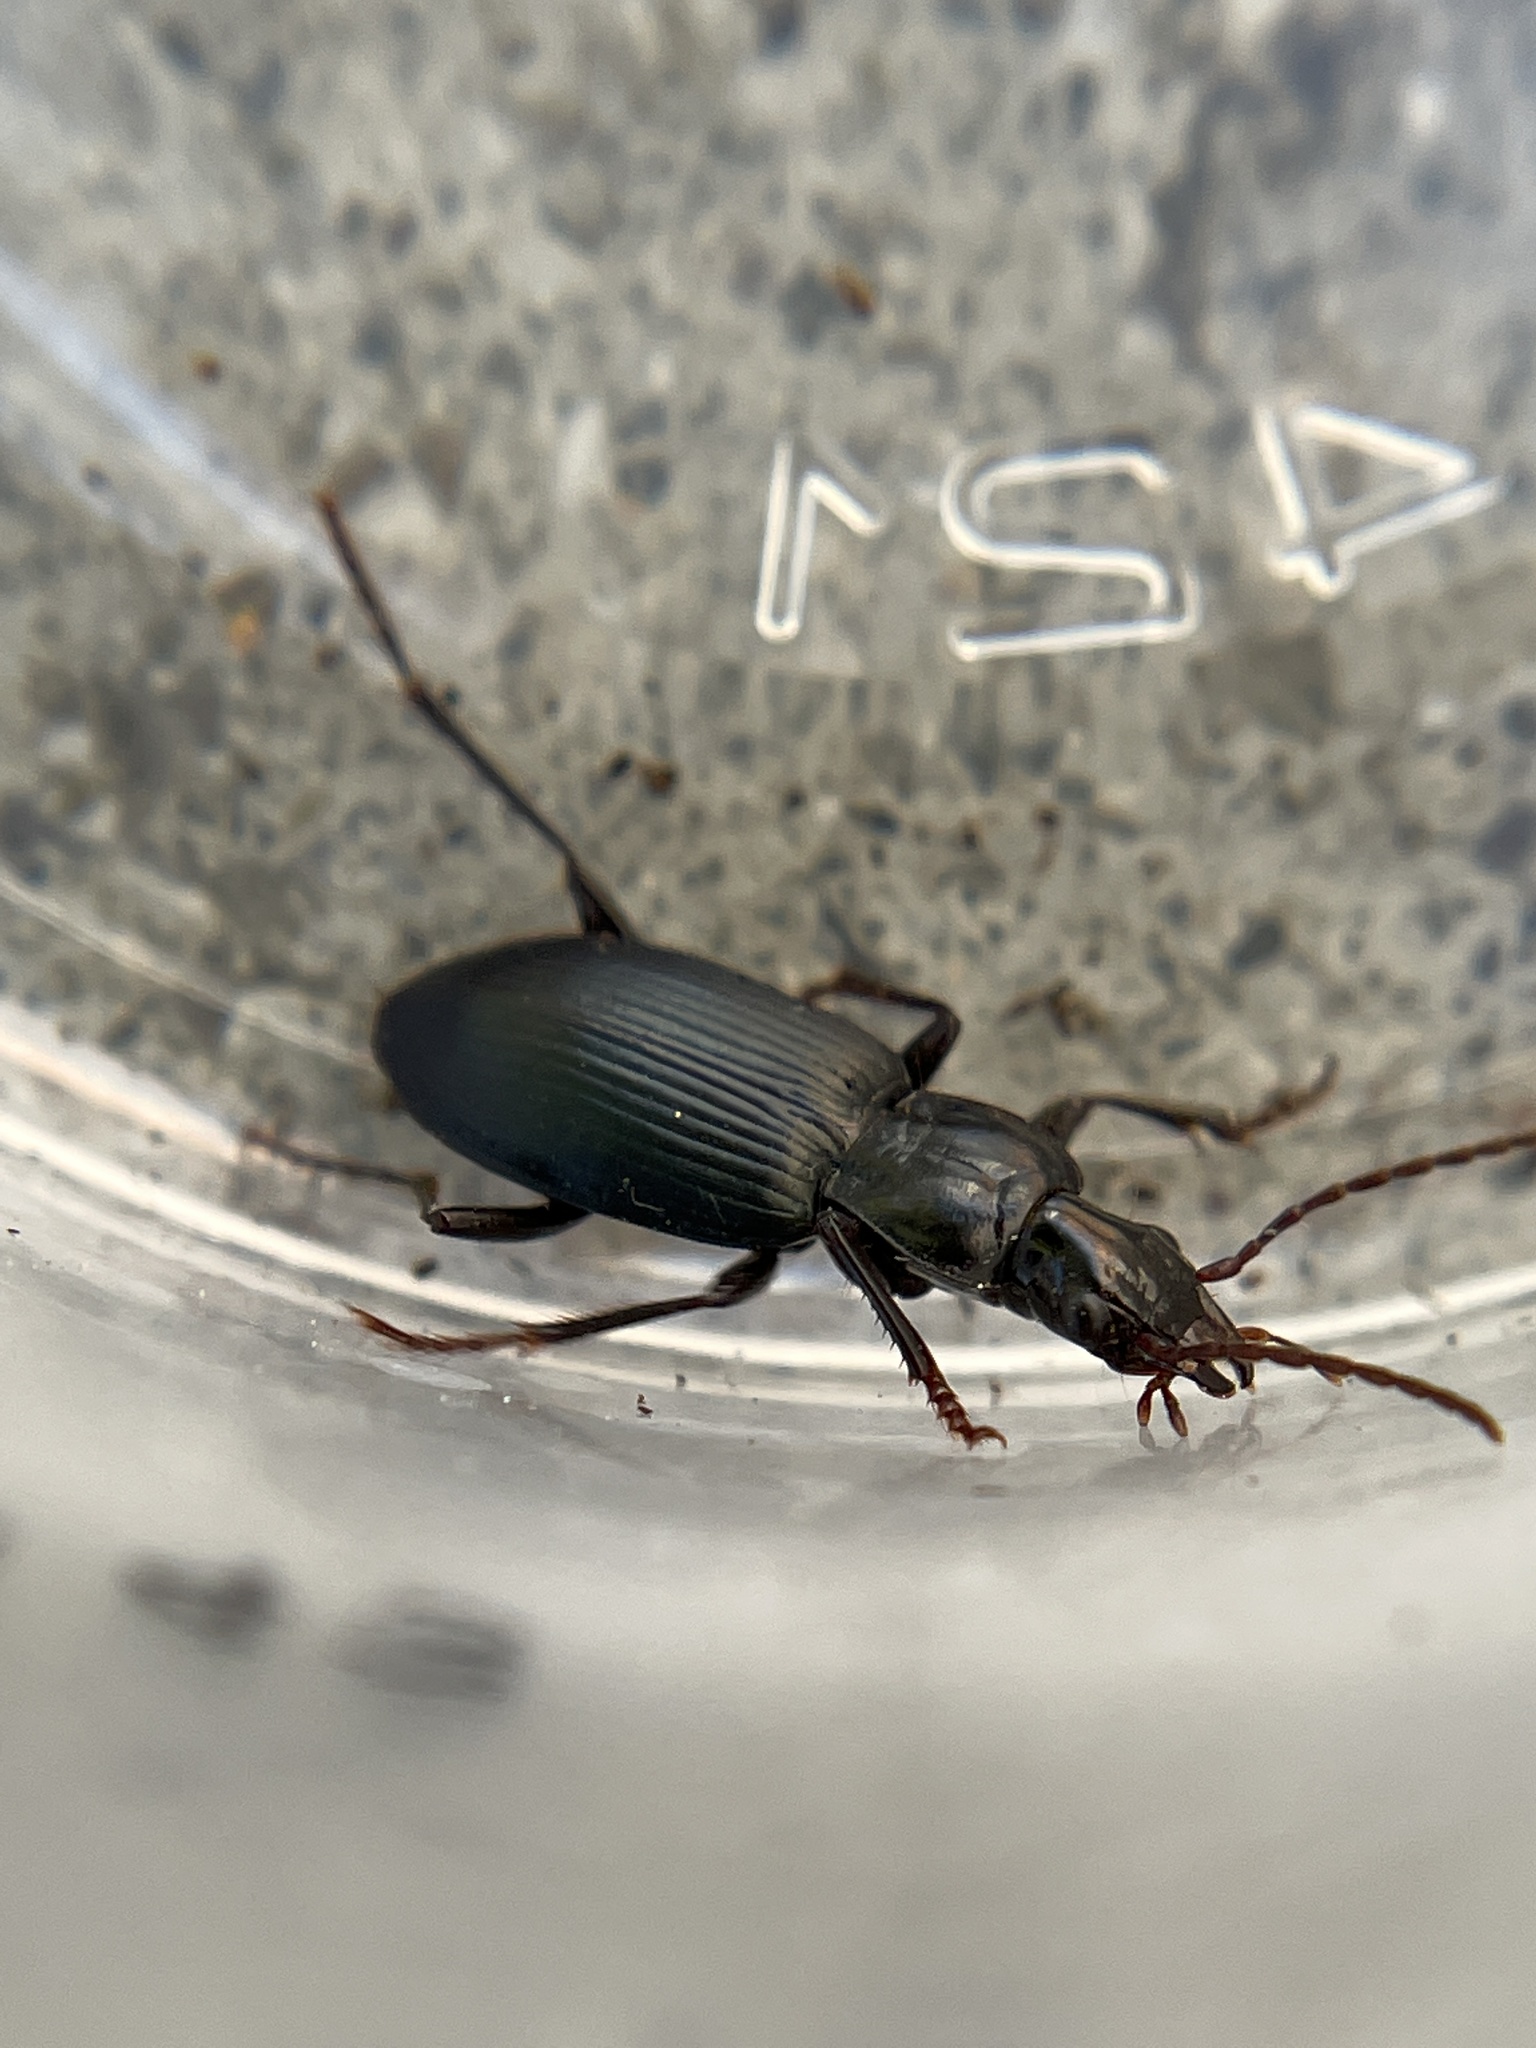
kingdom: Animalia
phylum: Arthropoda
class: Insecta
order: Coleoptera
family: Carabidae
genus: Laemostenus
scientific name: Laemostenus complanatus
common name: Cosmopolitan ground beetle
